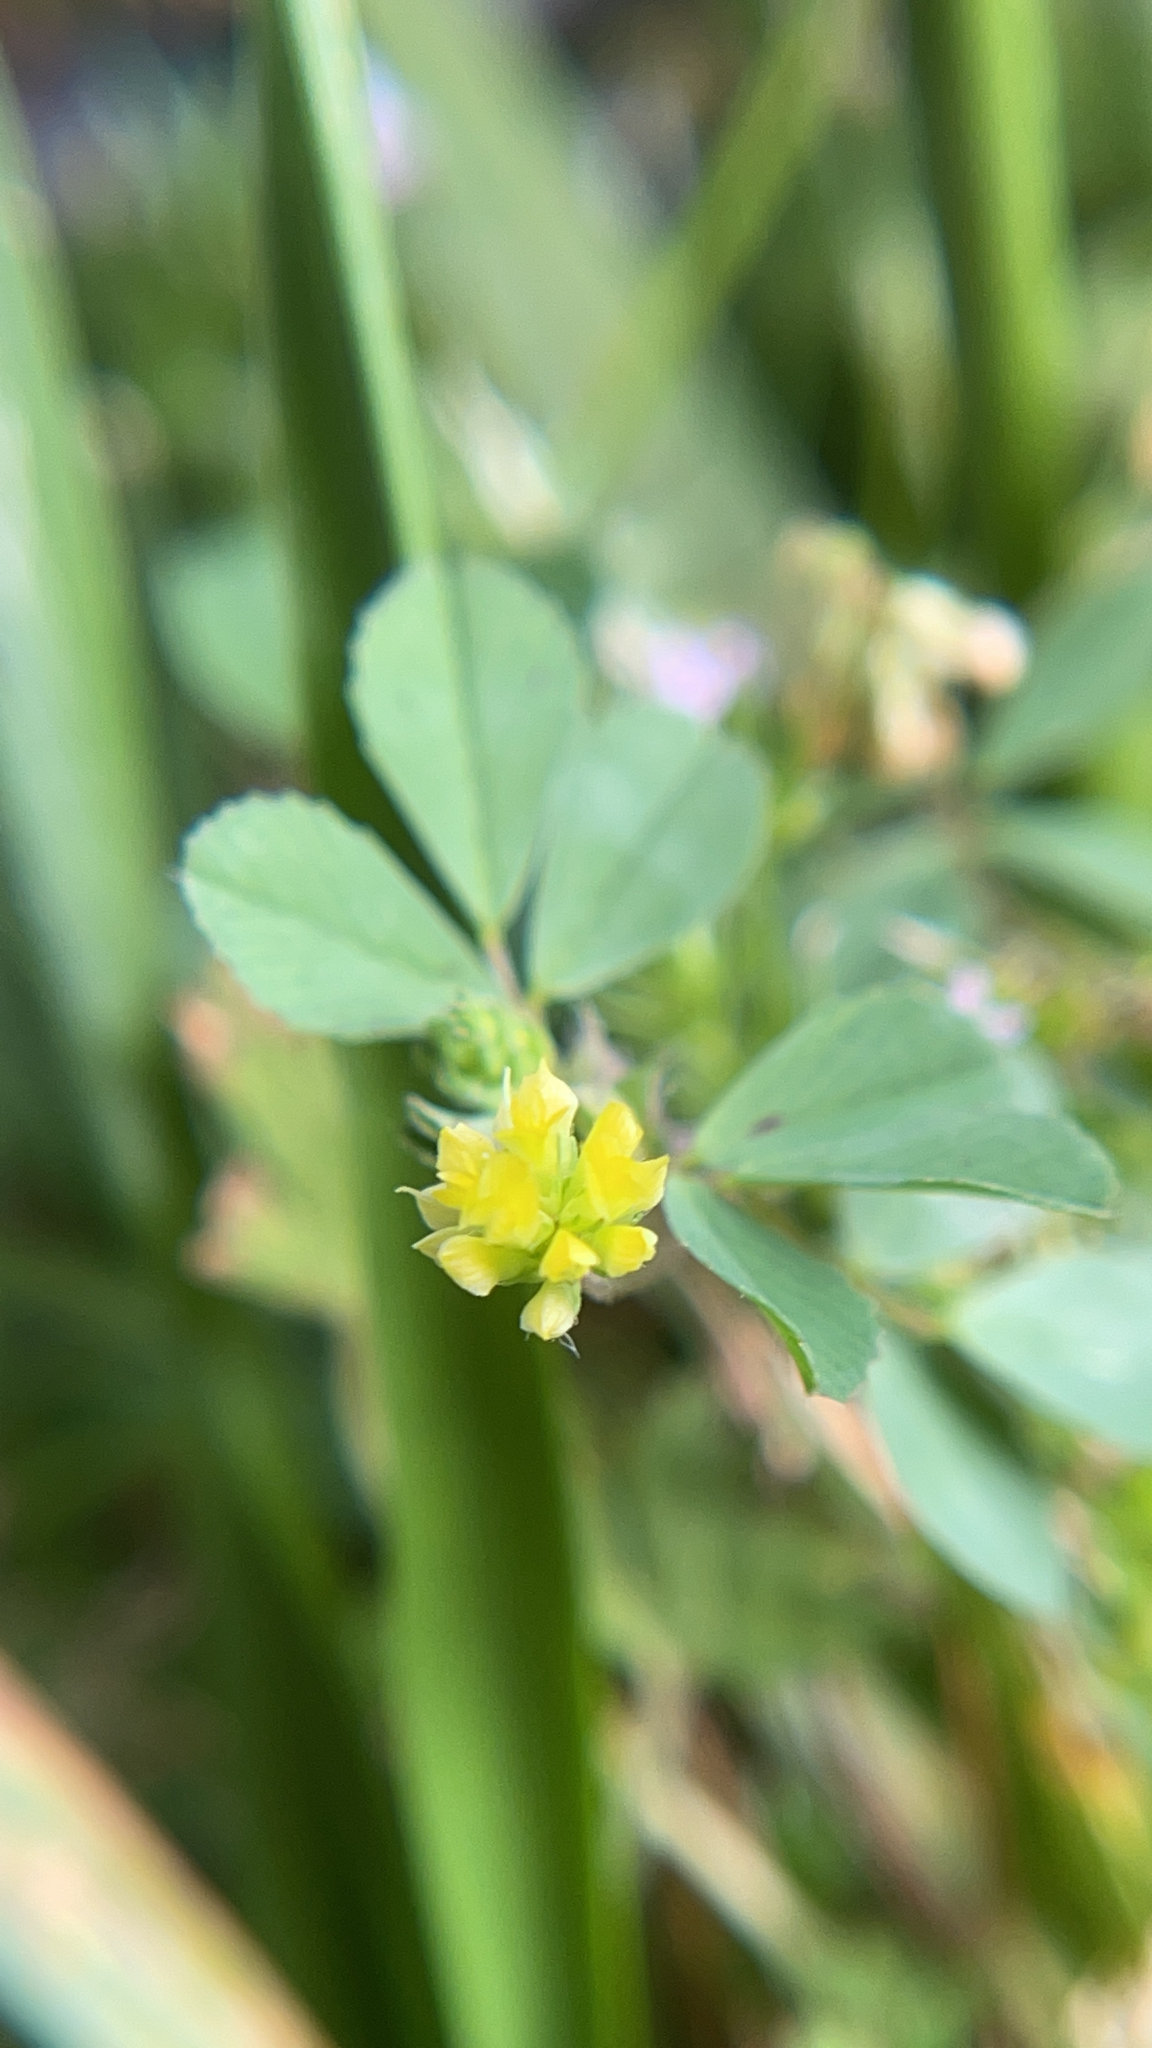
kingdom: Plantae
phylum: Tracheophyta
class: Magnoliopsida
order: Fabales
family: Fabaceae
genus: Trifolium
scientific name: Trifolium dubium
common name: Suckling clover
